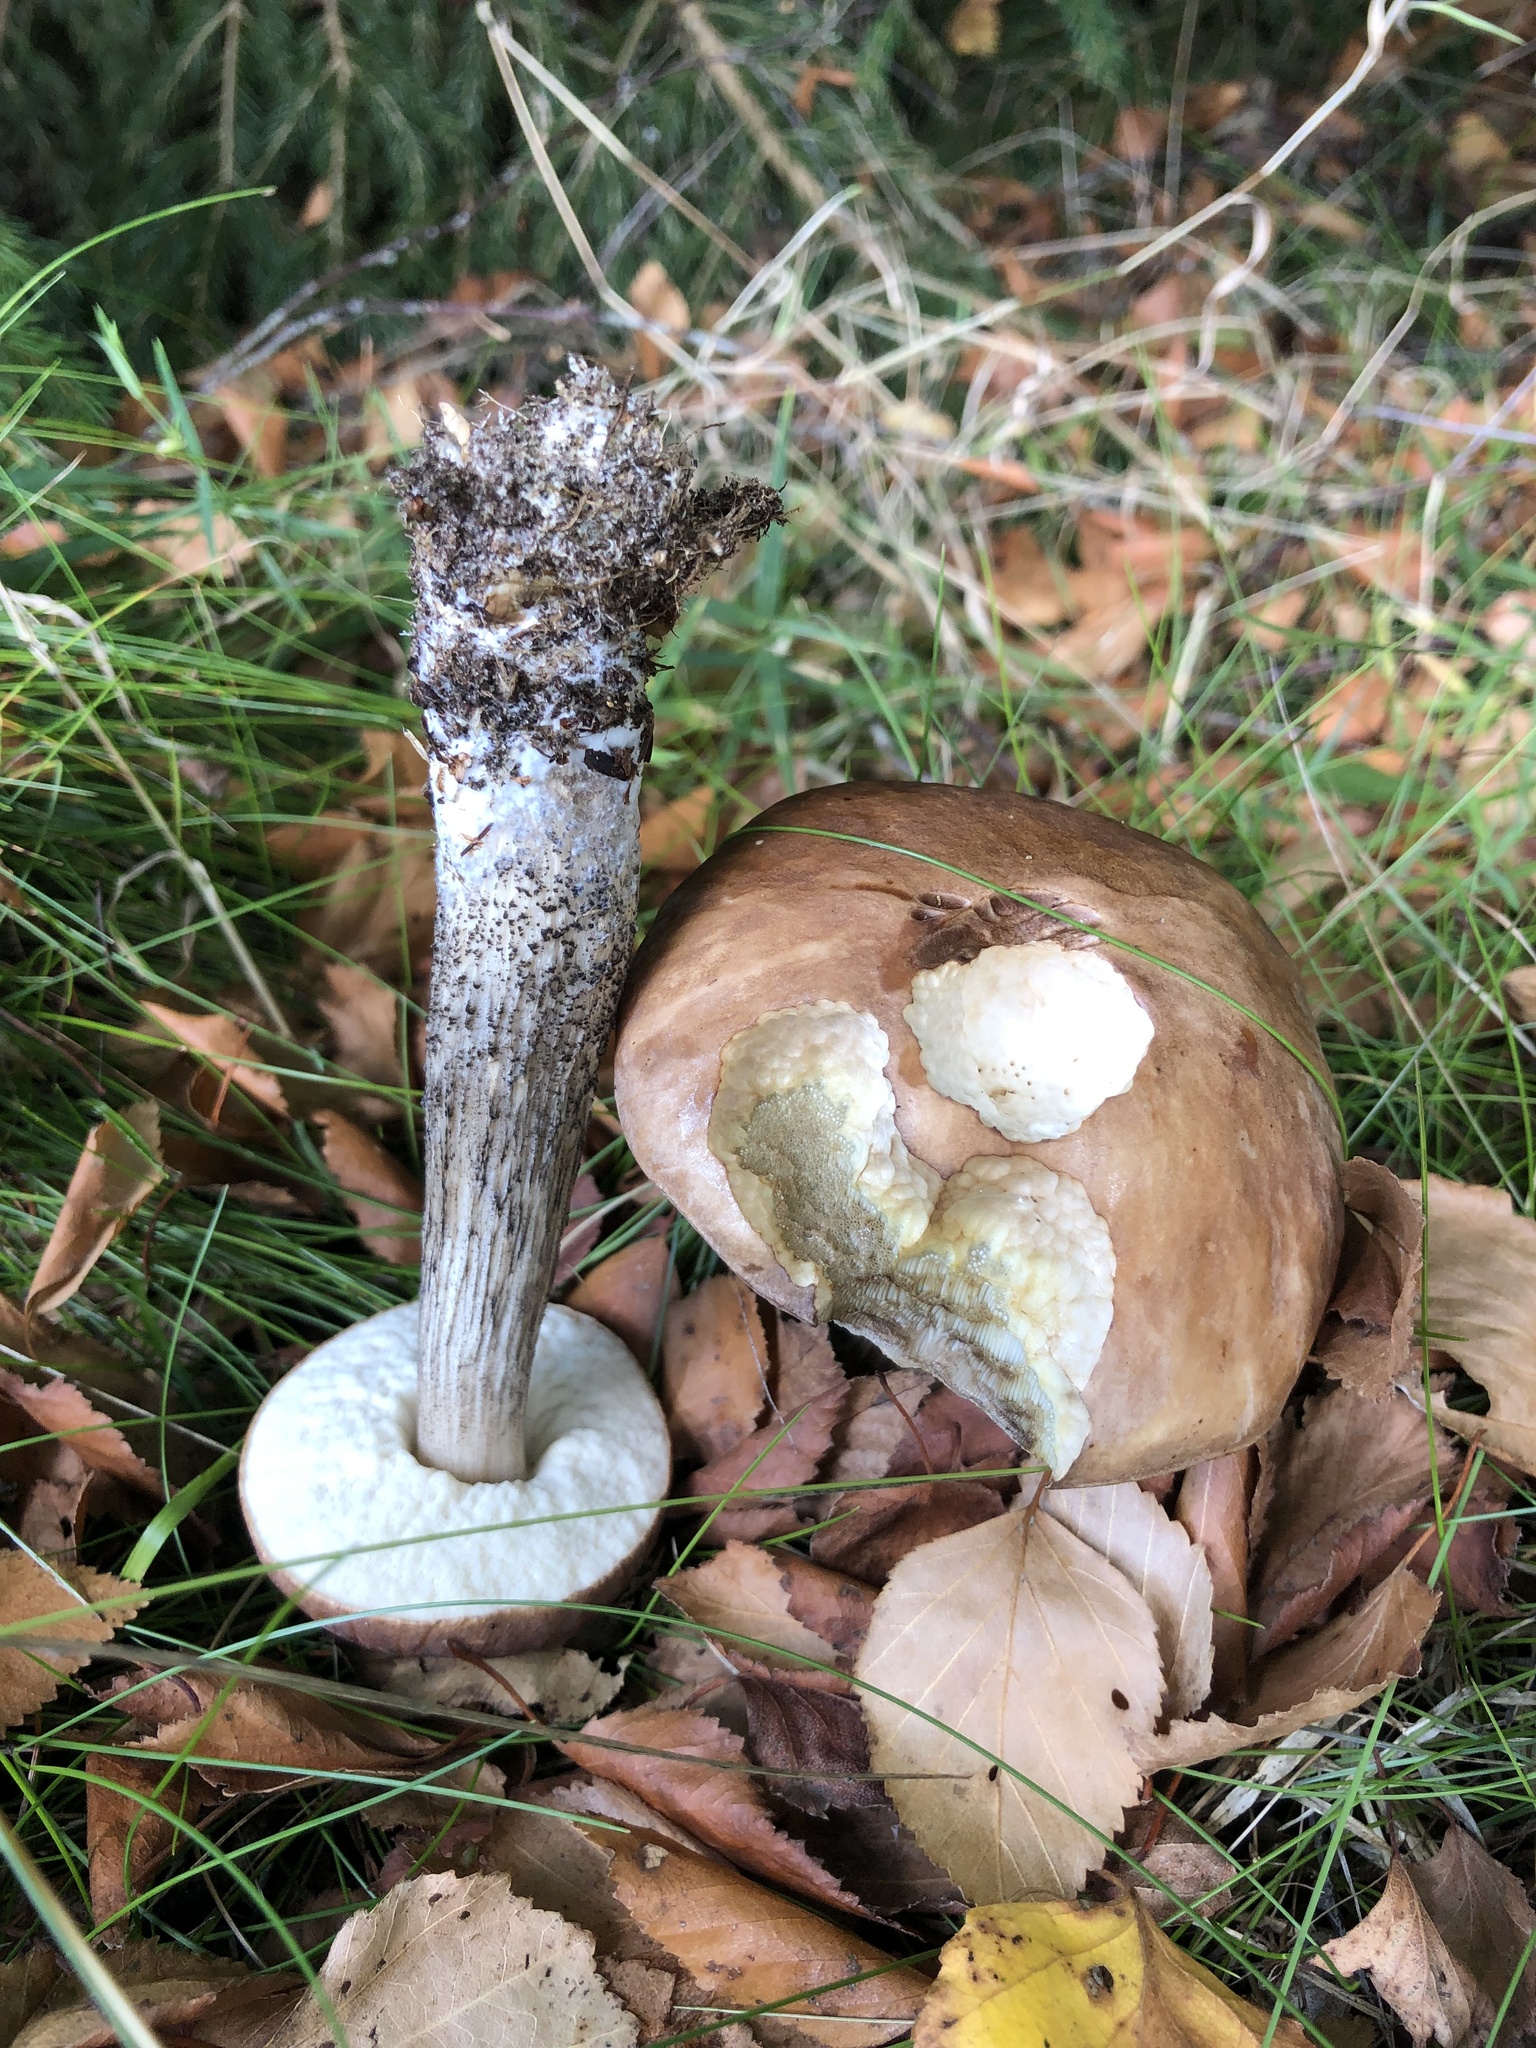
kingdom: Fungi
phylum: Basidiomycota
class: Agaricomycetes
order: Boletales
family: Boletaceae
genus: Leccinum
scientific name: Leccinum scabrum
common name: Blushing bolete
